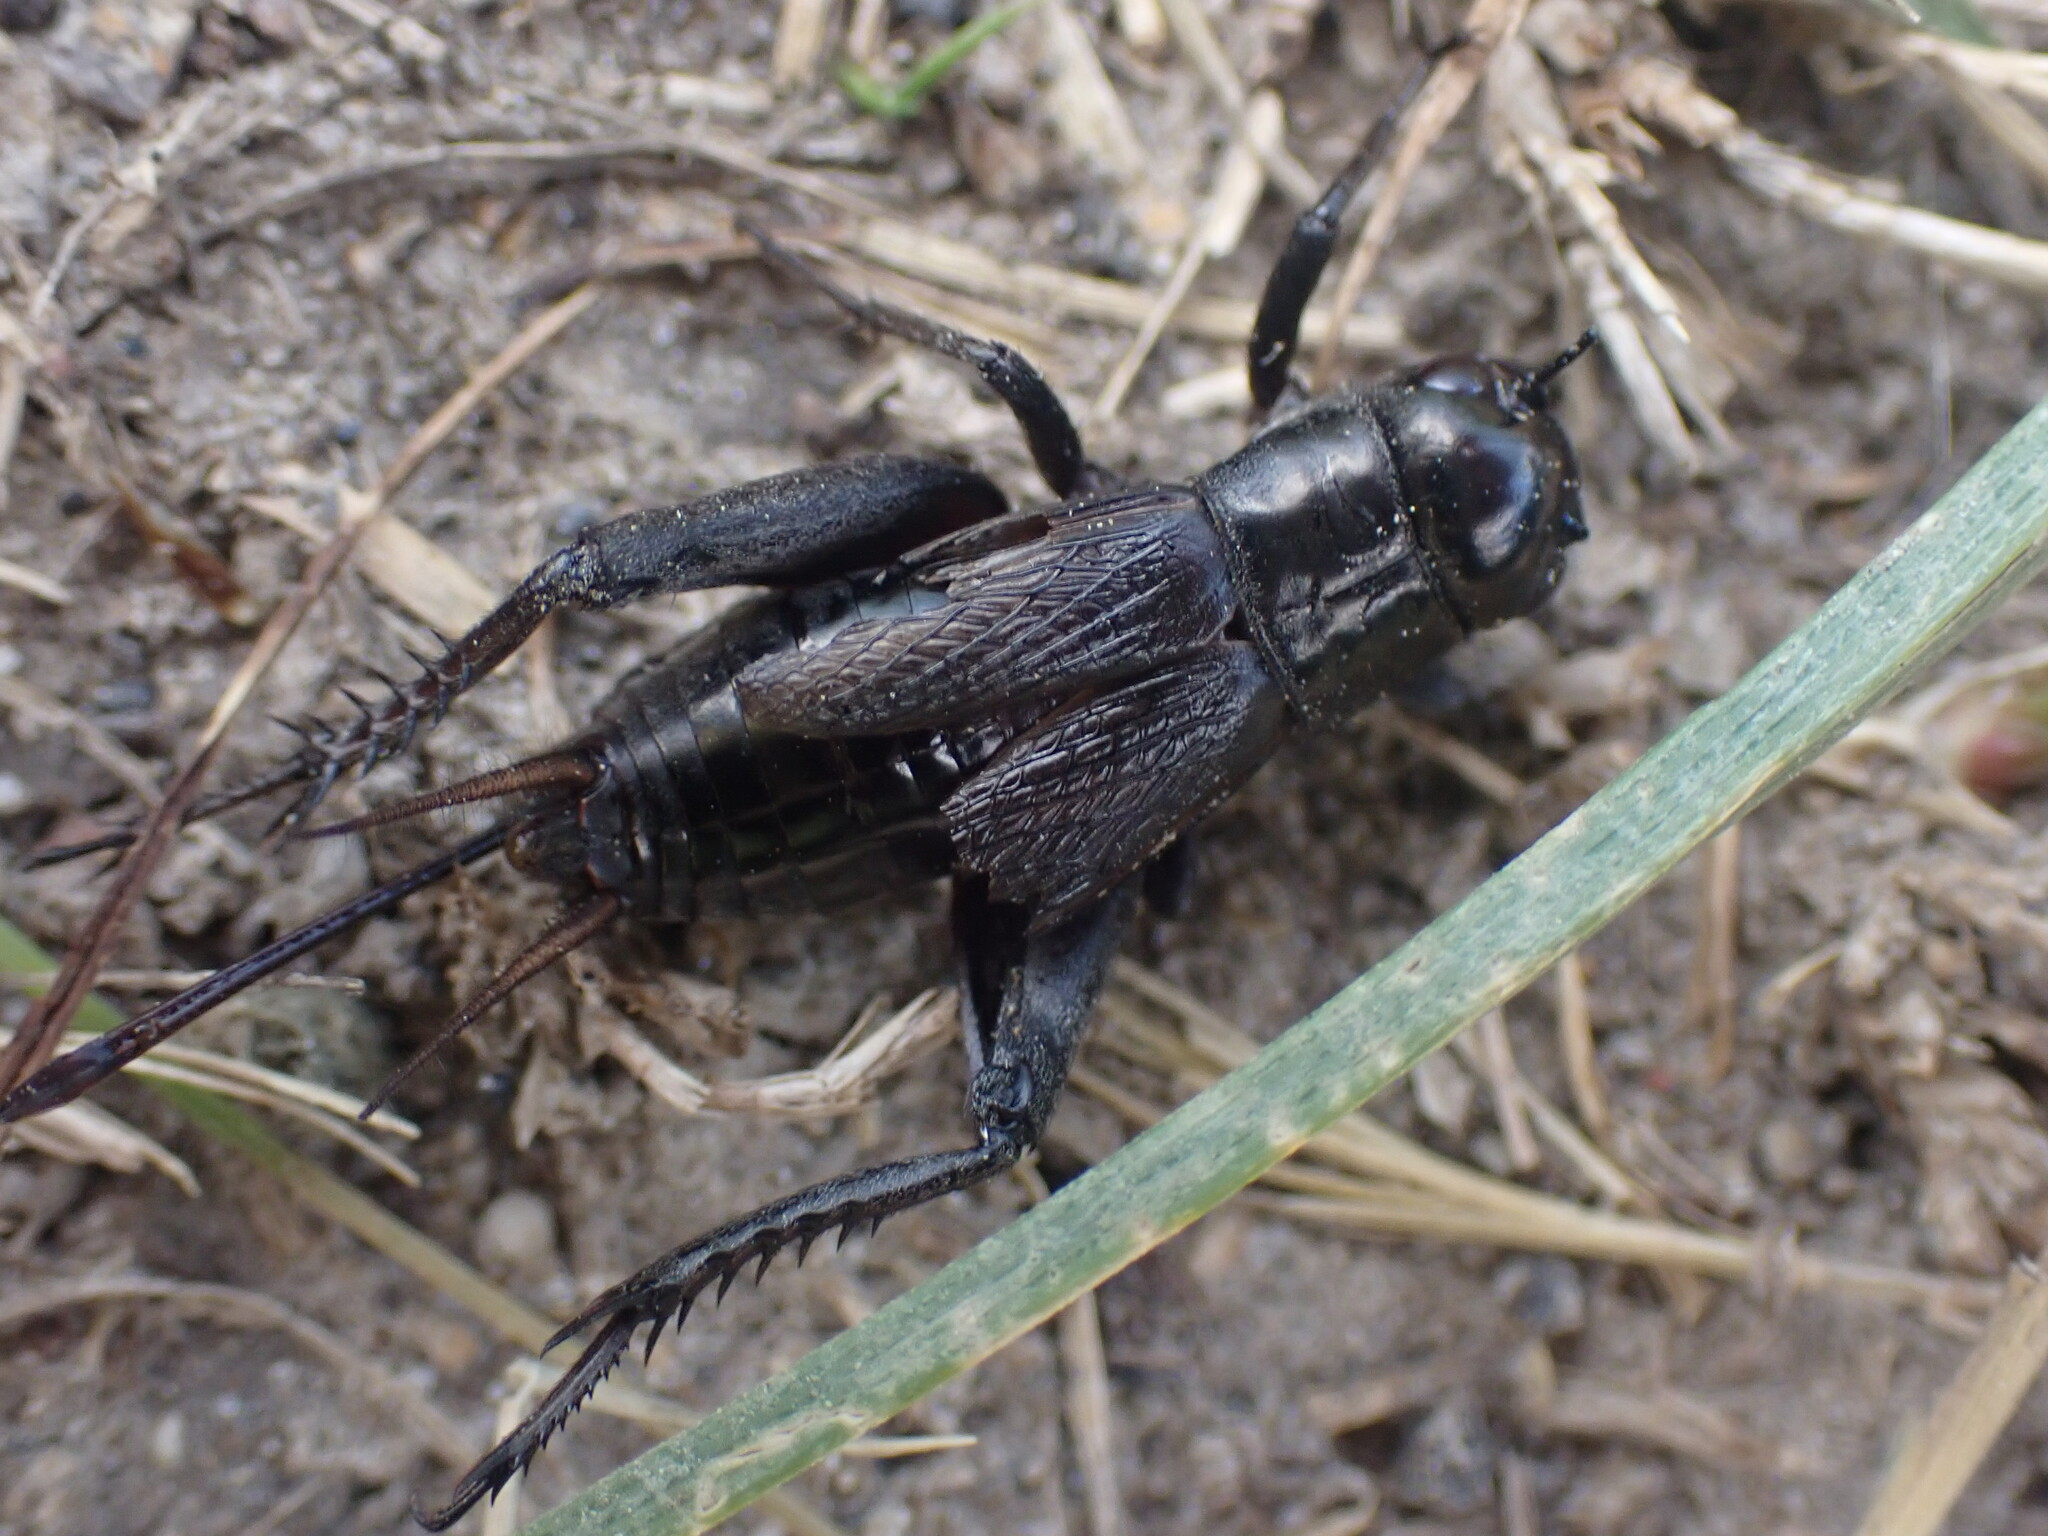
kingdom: Animalia
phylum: Arthropoda
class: Insecta
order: Orthoptera
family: Gryllidae
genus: Gryllus
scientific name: Gryllus veletis
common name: Spring field cricket
